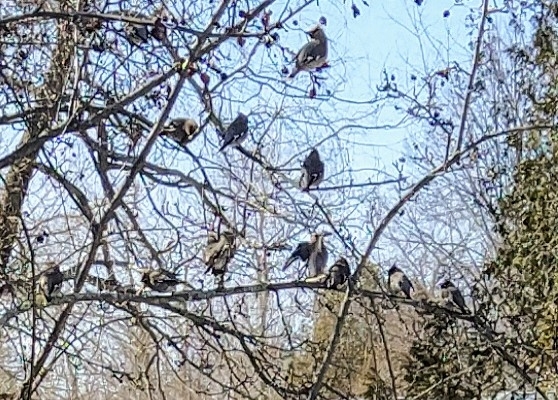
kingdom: Animalia
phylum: Chordata
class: Aves
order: Passeriformes
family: Bombycillidae
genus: Bombycilla
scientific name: Bombycilla garrulus
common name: Bohemian waxwing
